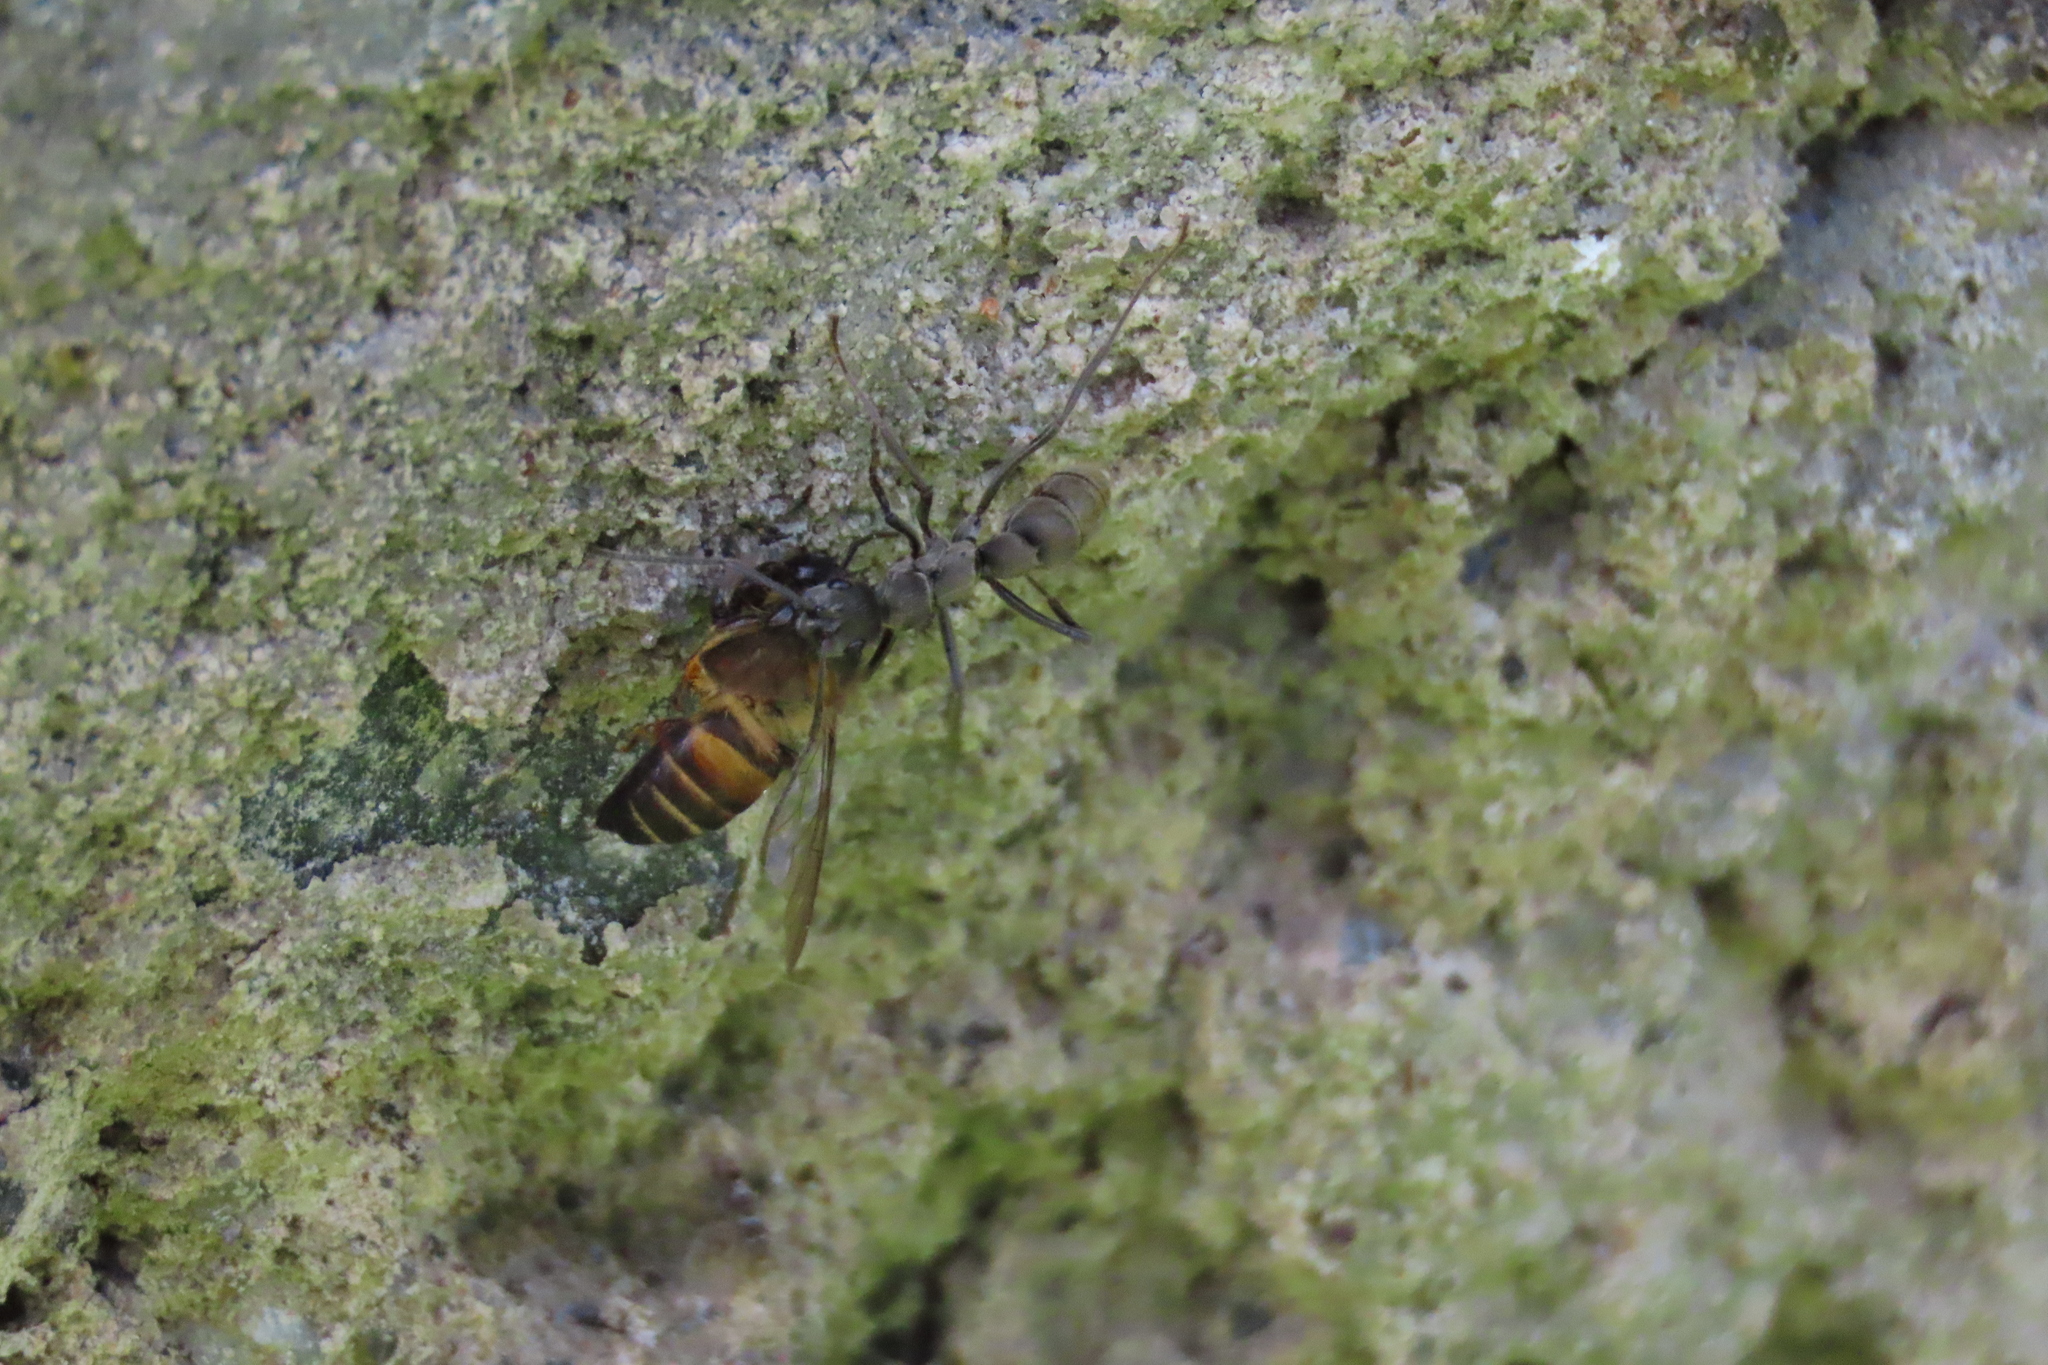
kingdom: Animalia
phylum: Arthropoda
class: Insecta
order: Hymenoptera
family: Apidae
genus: Apis
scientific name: Apis cerana
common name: Honey bee
